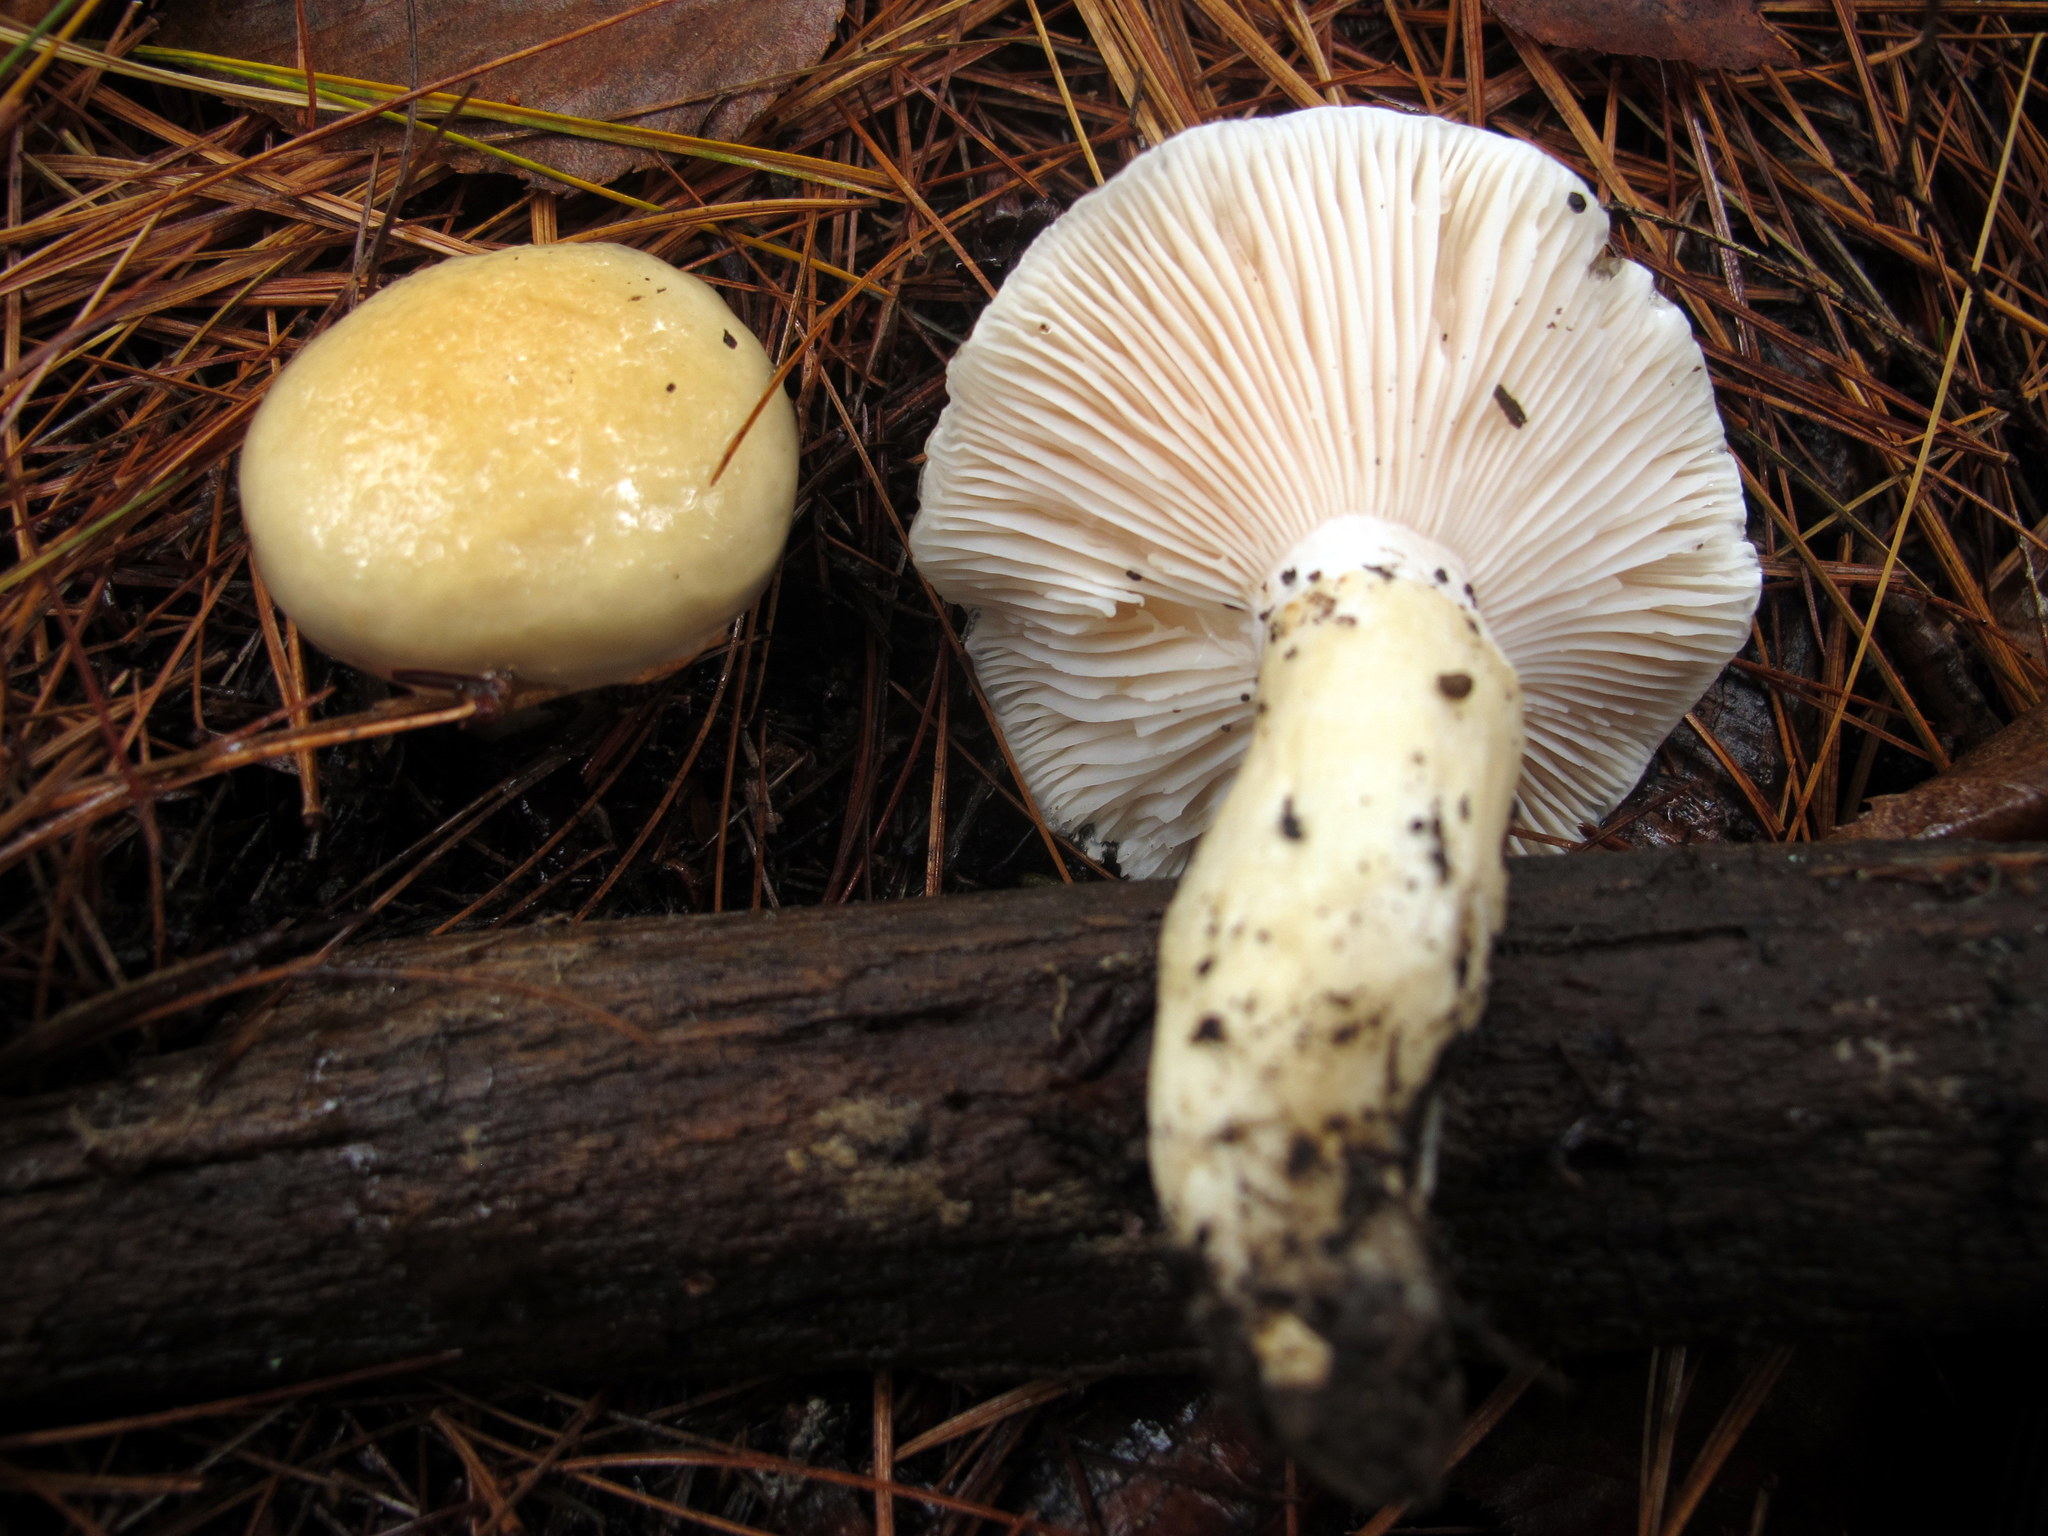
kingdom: Fungi
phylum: Basidiomycota
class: Agaricomycetes
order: Agaricales
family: Hygrophoraceae
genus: Hygrophorus
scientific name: Hygrophorus ligatus
